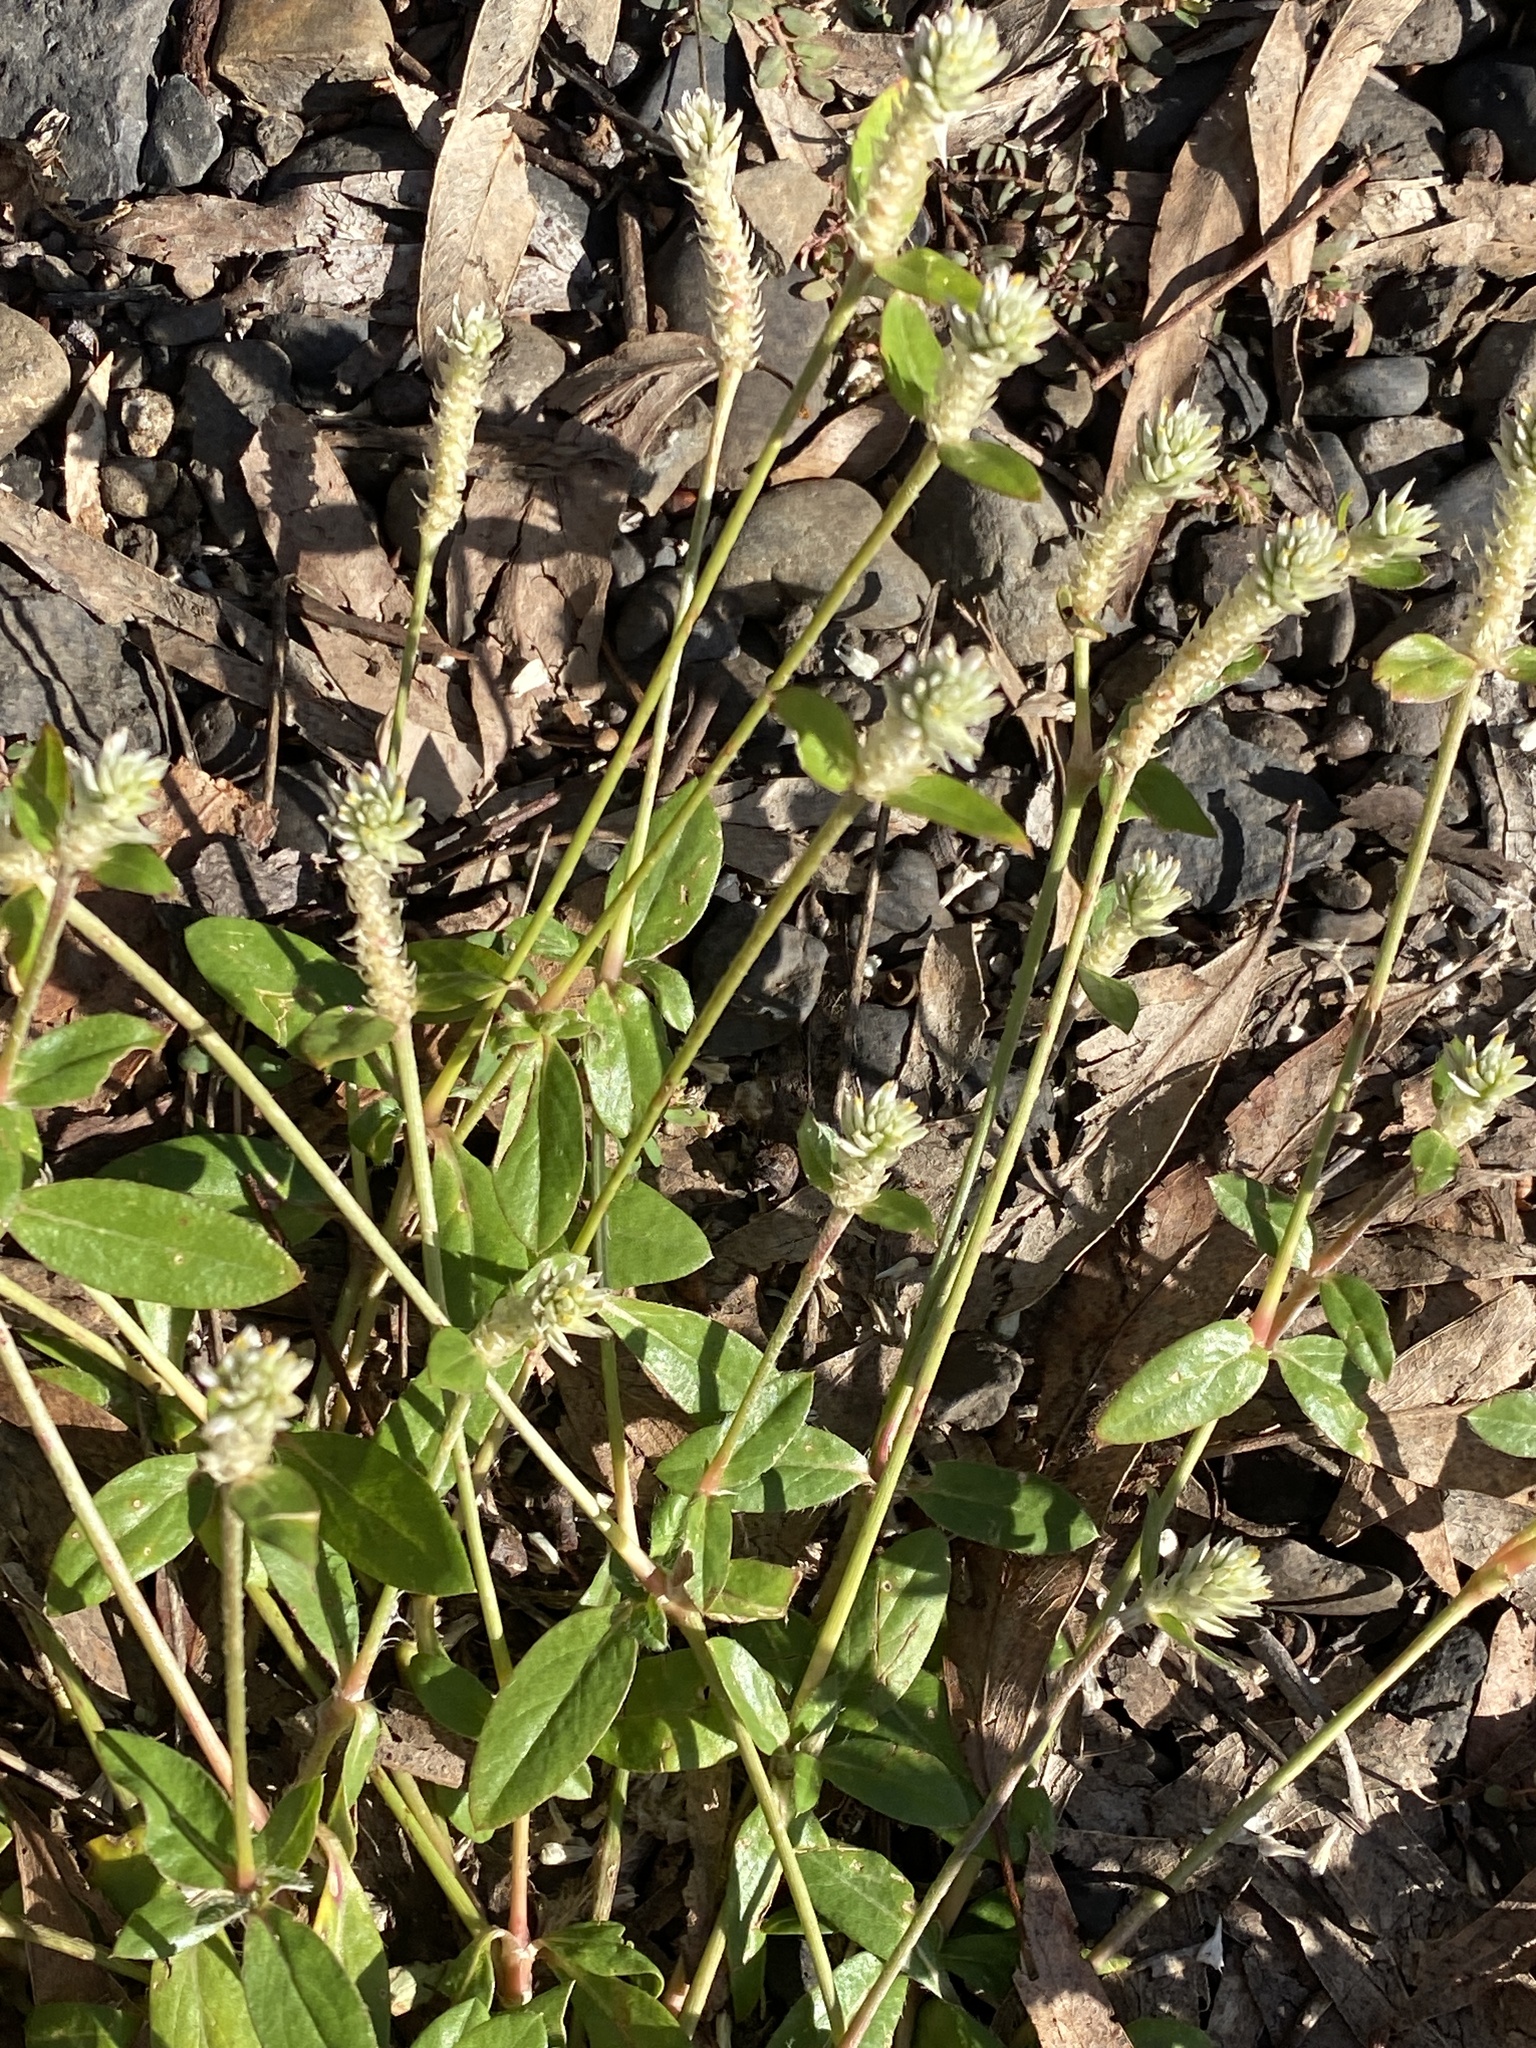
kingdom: Plantae
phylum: Tracheophyta
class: Magnoliopsida
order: Caryophyllales
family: Amaranthaceae
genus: Gomphrena
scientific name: Gomphrena celosioides
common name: Gomphrena-weed
